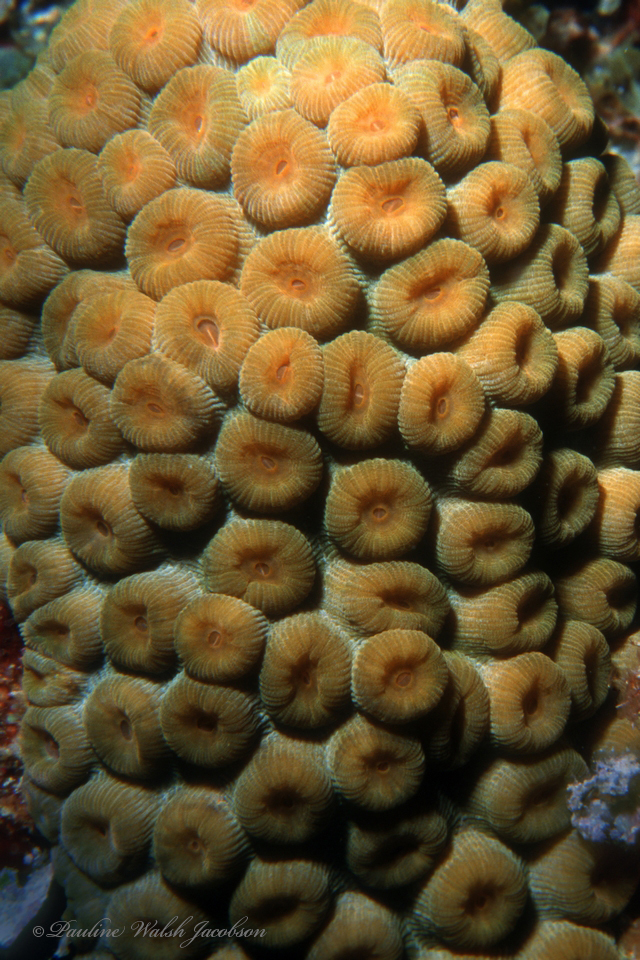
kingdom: Animalia
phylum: Cnidaria
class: Anthozoa
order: Scleractinia
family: Montastraeidae
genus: Montastraea
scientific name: Montastraea cavernosa
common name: Great star coral
